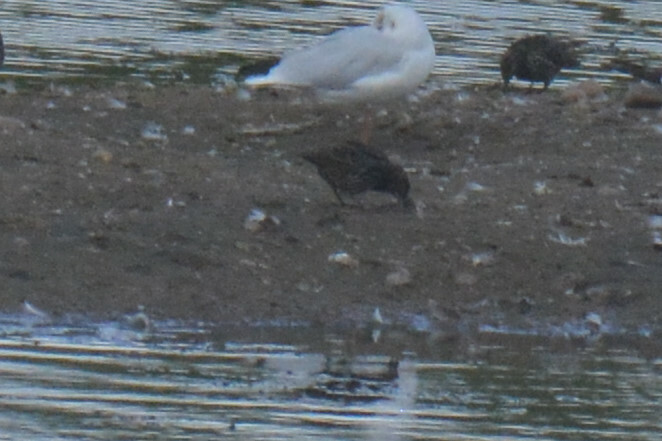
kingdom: Animalia
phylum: Chordata
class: Aves
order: Passeriformes
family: Sturnidae
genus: Sturnus
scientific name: Sturnus vulgaris
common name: Common starling
